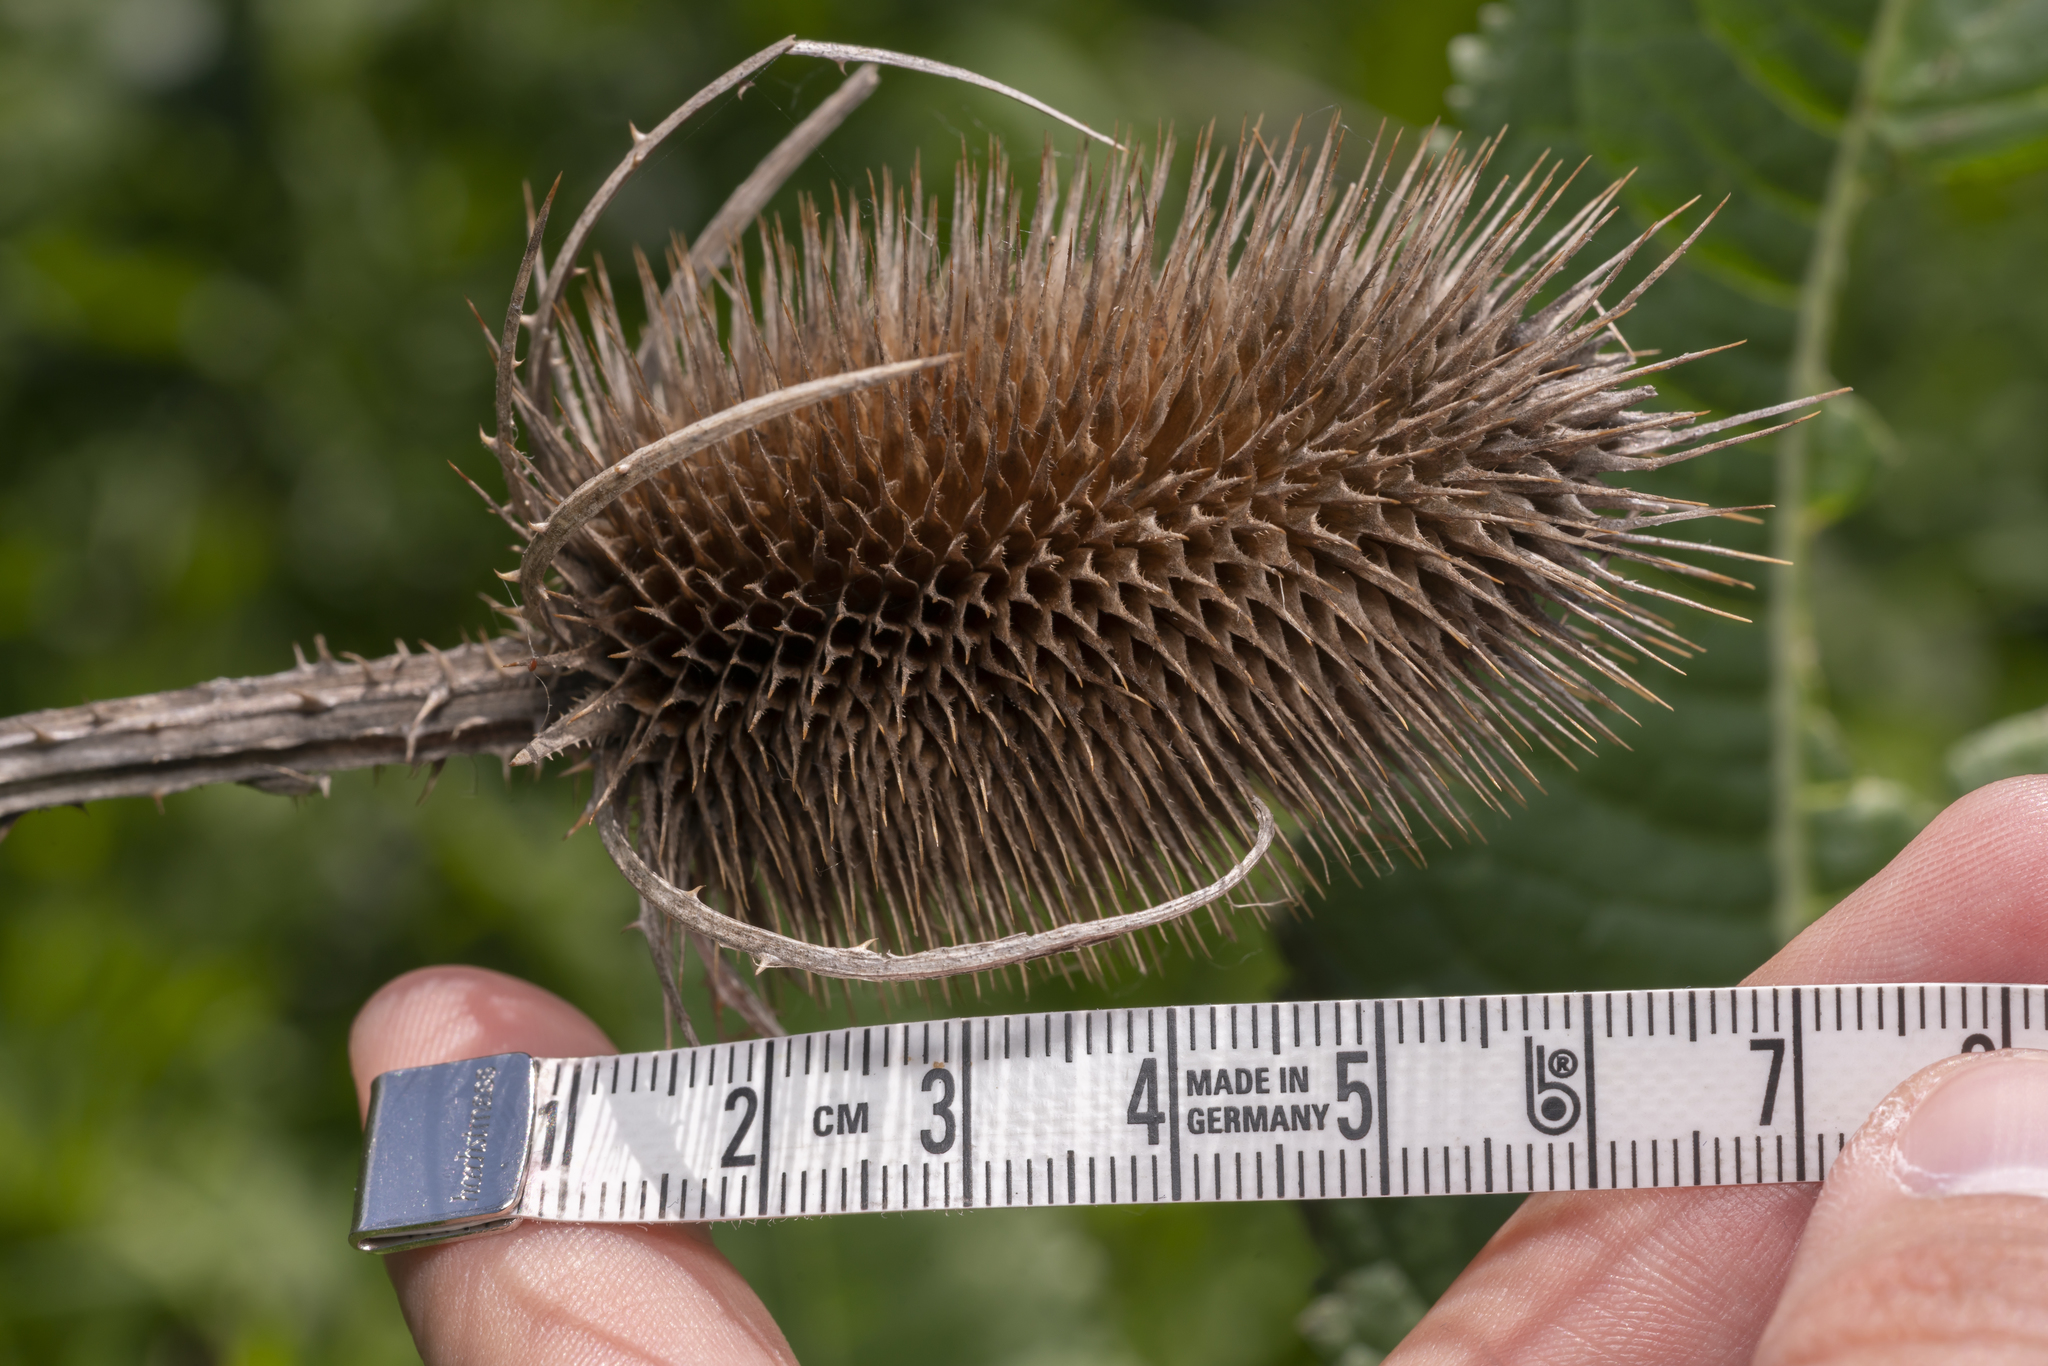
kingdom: Plantae
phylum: Tracheophyta
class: Magnoliopsida
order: Dipsacales
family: Caprifoliaceae
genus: Dipsacus
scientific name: Dipsacus fullonum
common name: Teasel
